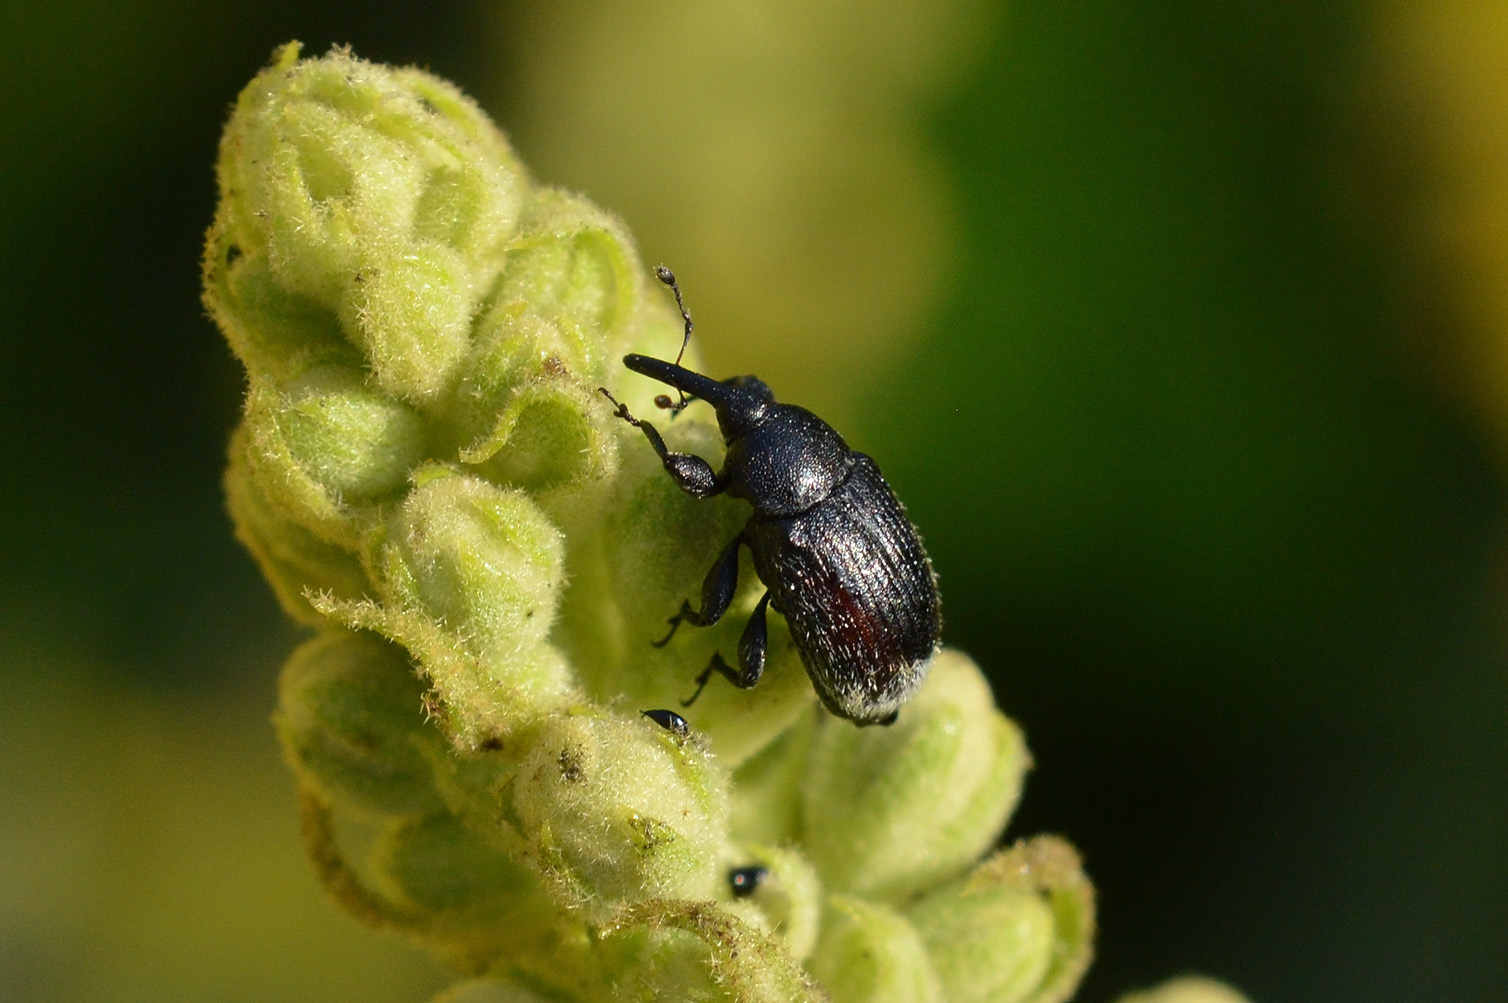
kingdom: Animalia
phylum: Arthropoda
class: Insecta
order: Coleoptera
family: Curculionidae
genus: Rhinusa
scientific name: Rhinusa asellus
